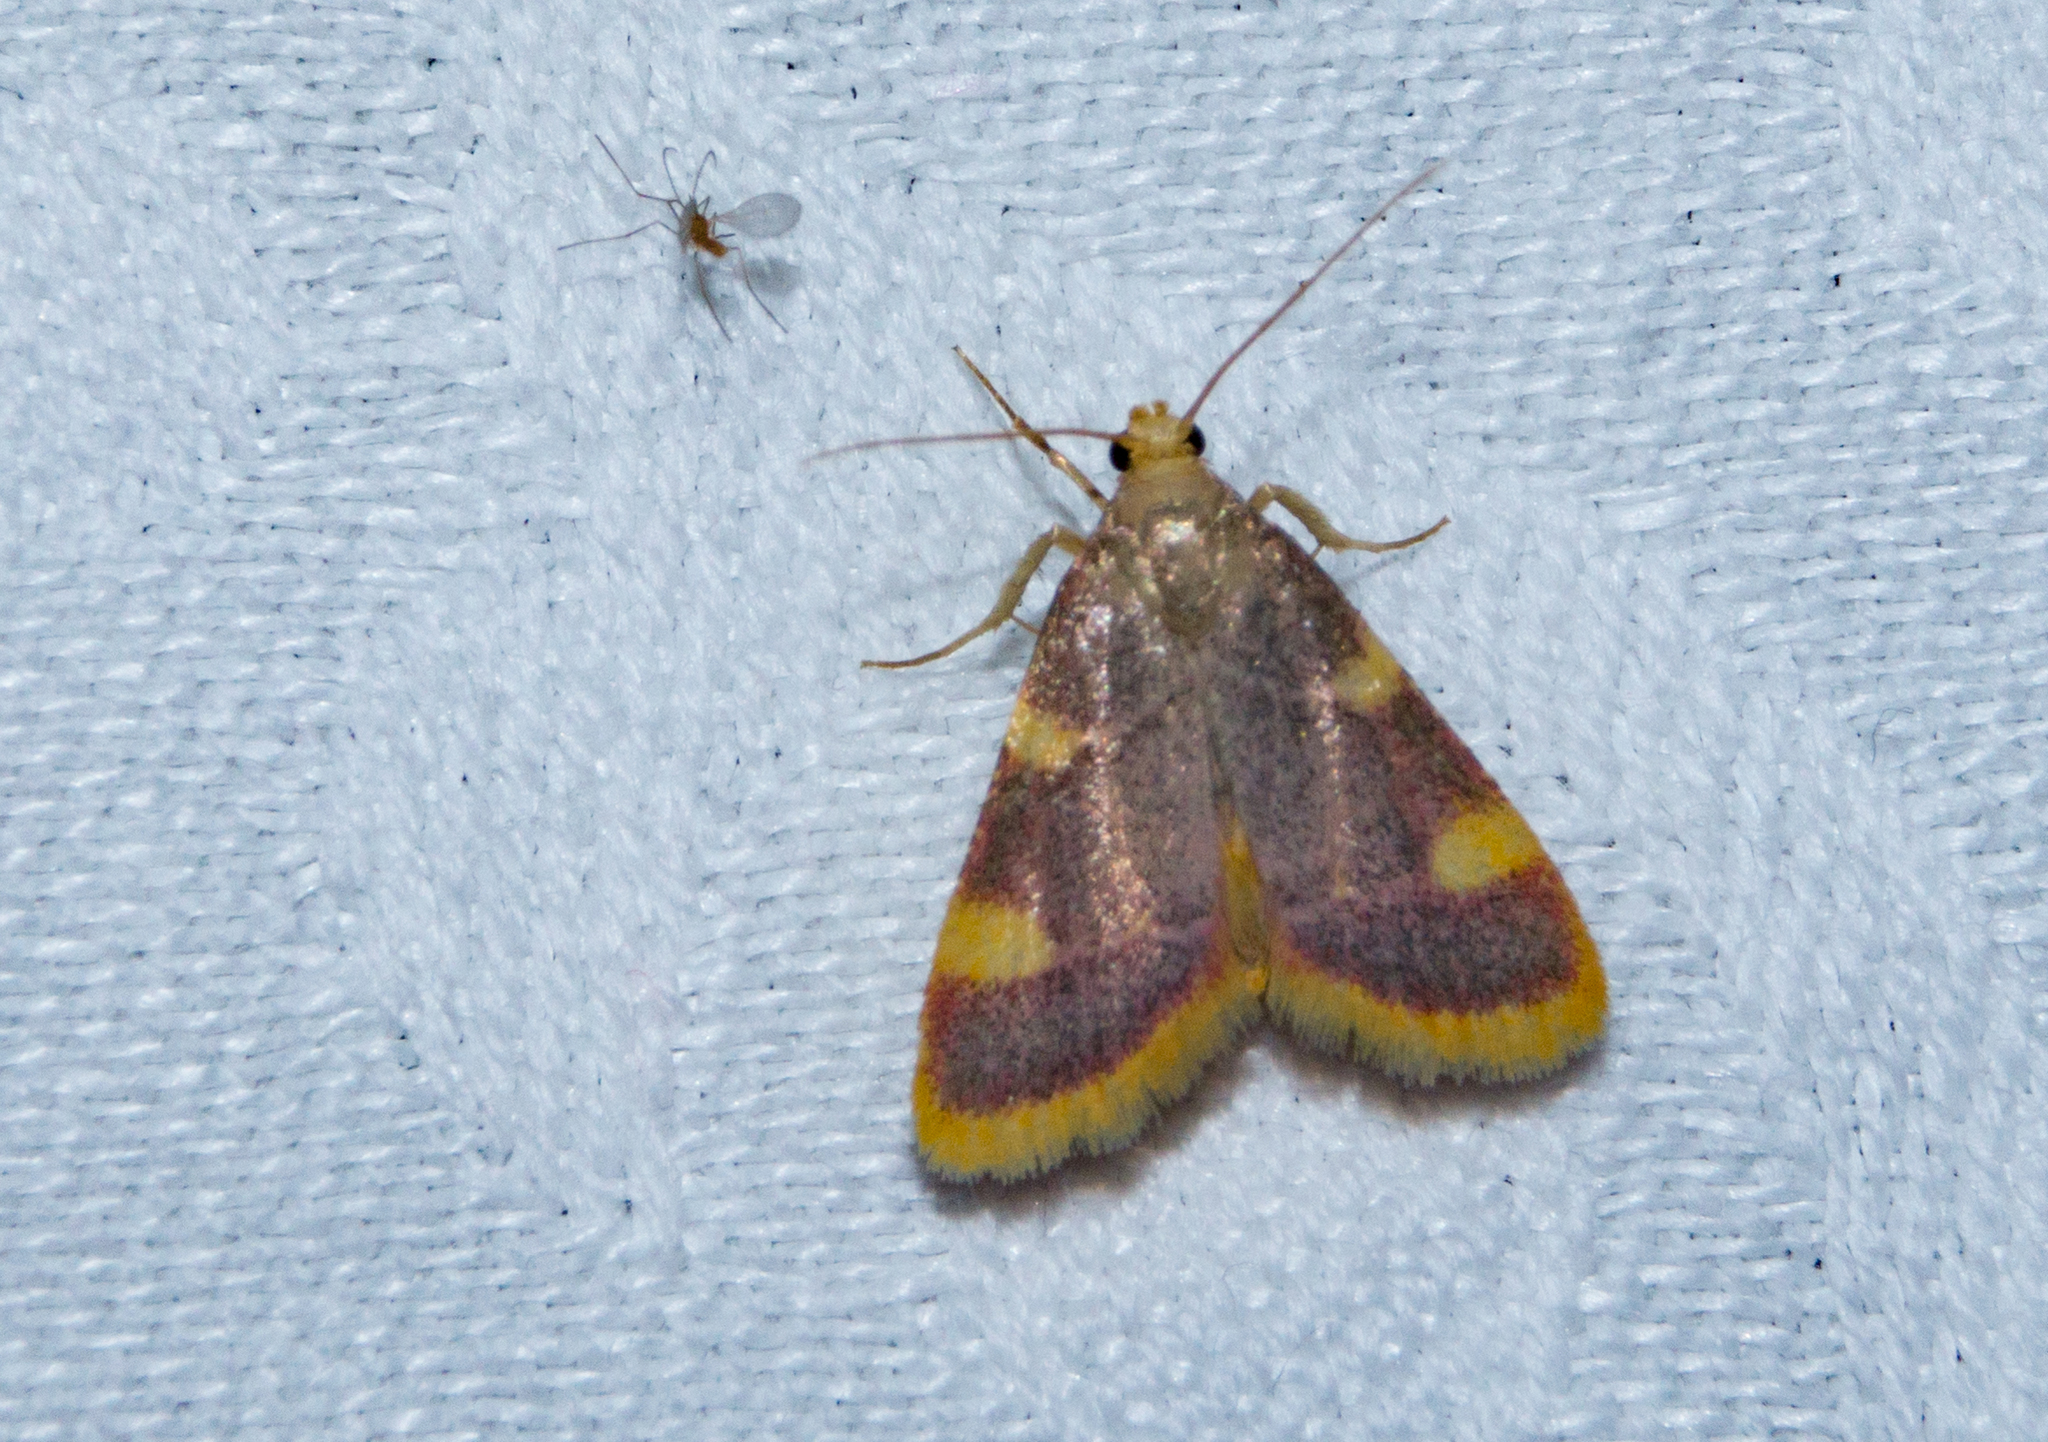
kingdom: Animalia
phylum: Arthropoda
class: Insecta
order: Lepidoptera
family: Pyralidae
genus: Hypsopygia
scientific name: Hypsopygia costalis
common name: Gold triangle
